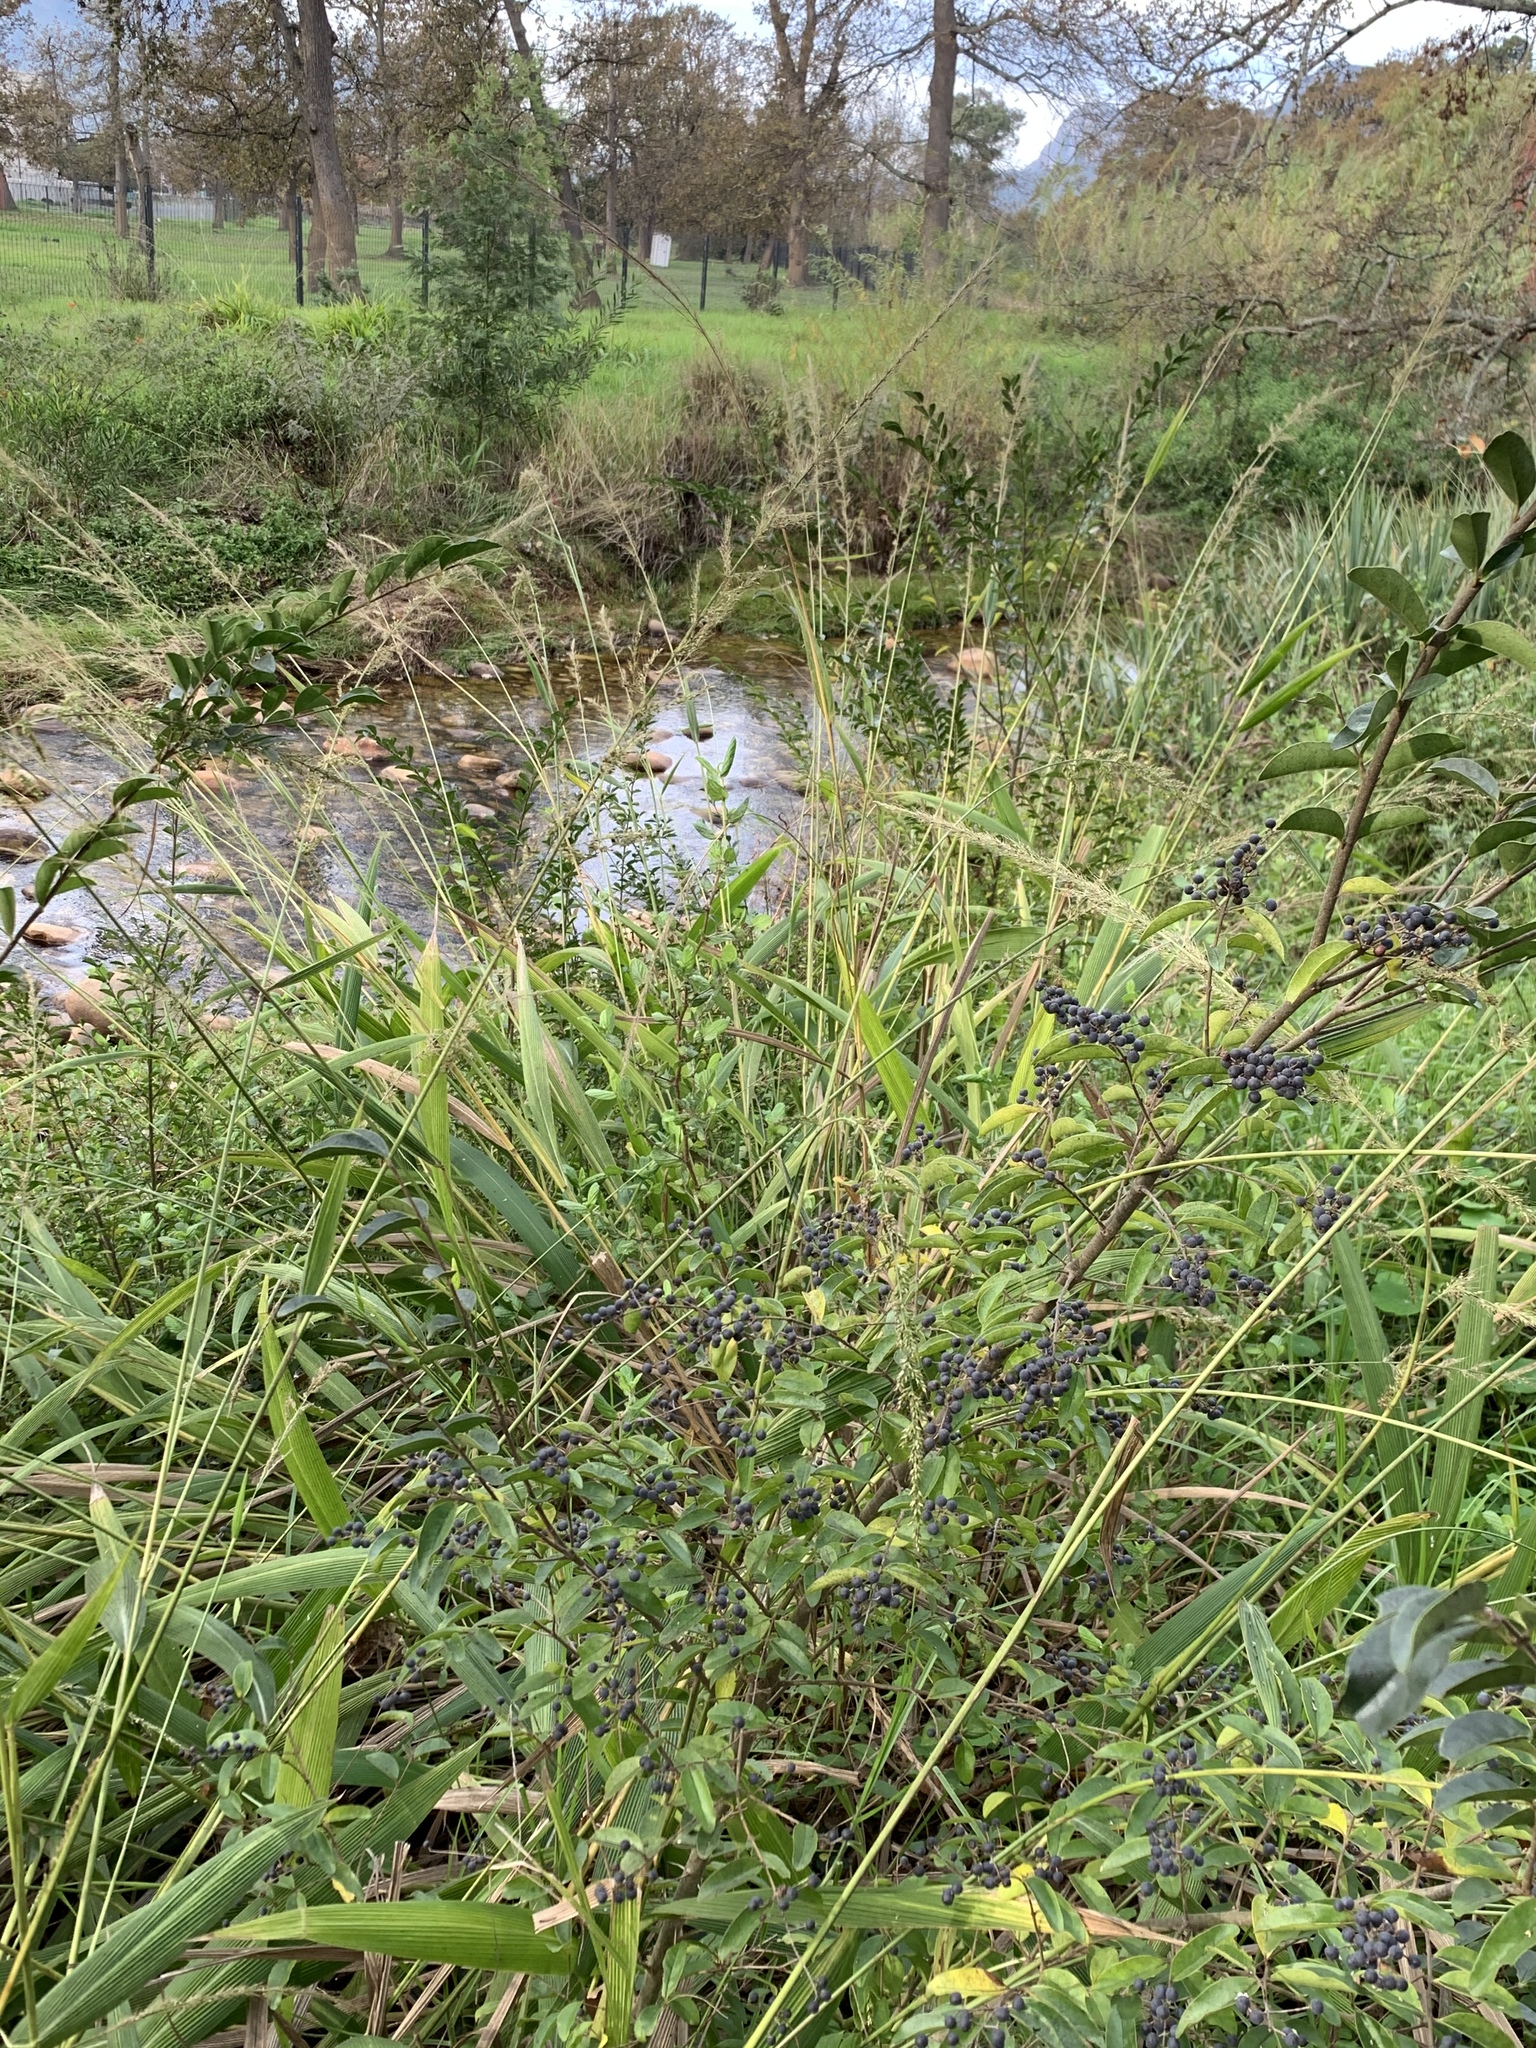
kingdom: Plantae
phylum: Tracheophyta
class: Magnoliopsida
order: Lamiales
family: Oleaceae
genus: Ligustrum
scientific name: Ligustrum sinense
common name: Chinese privet
